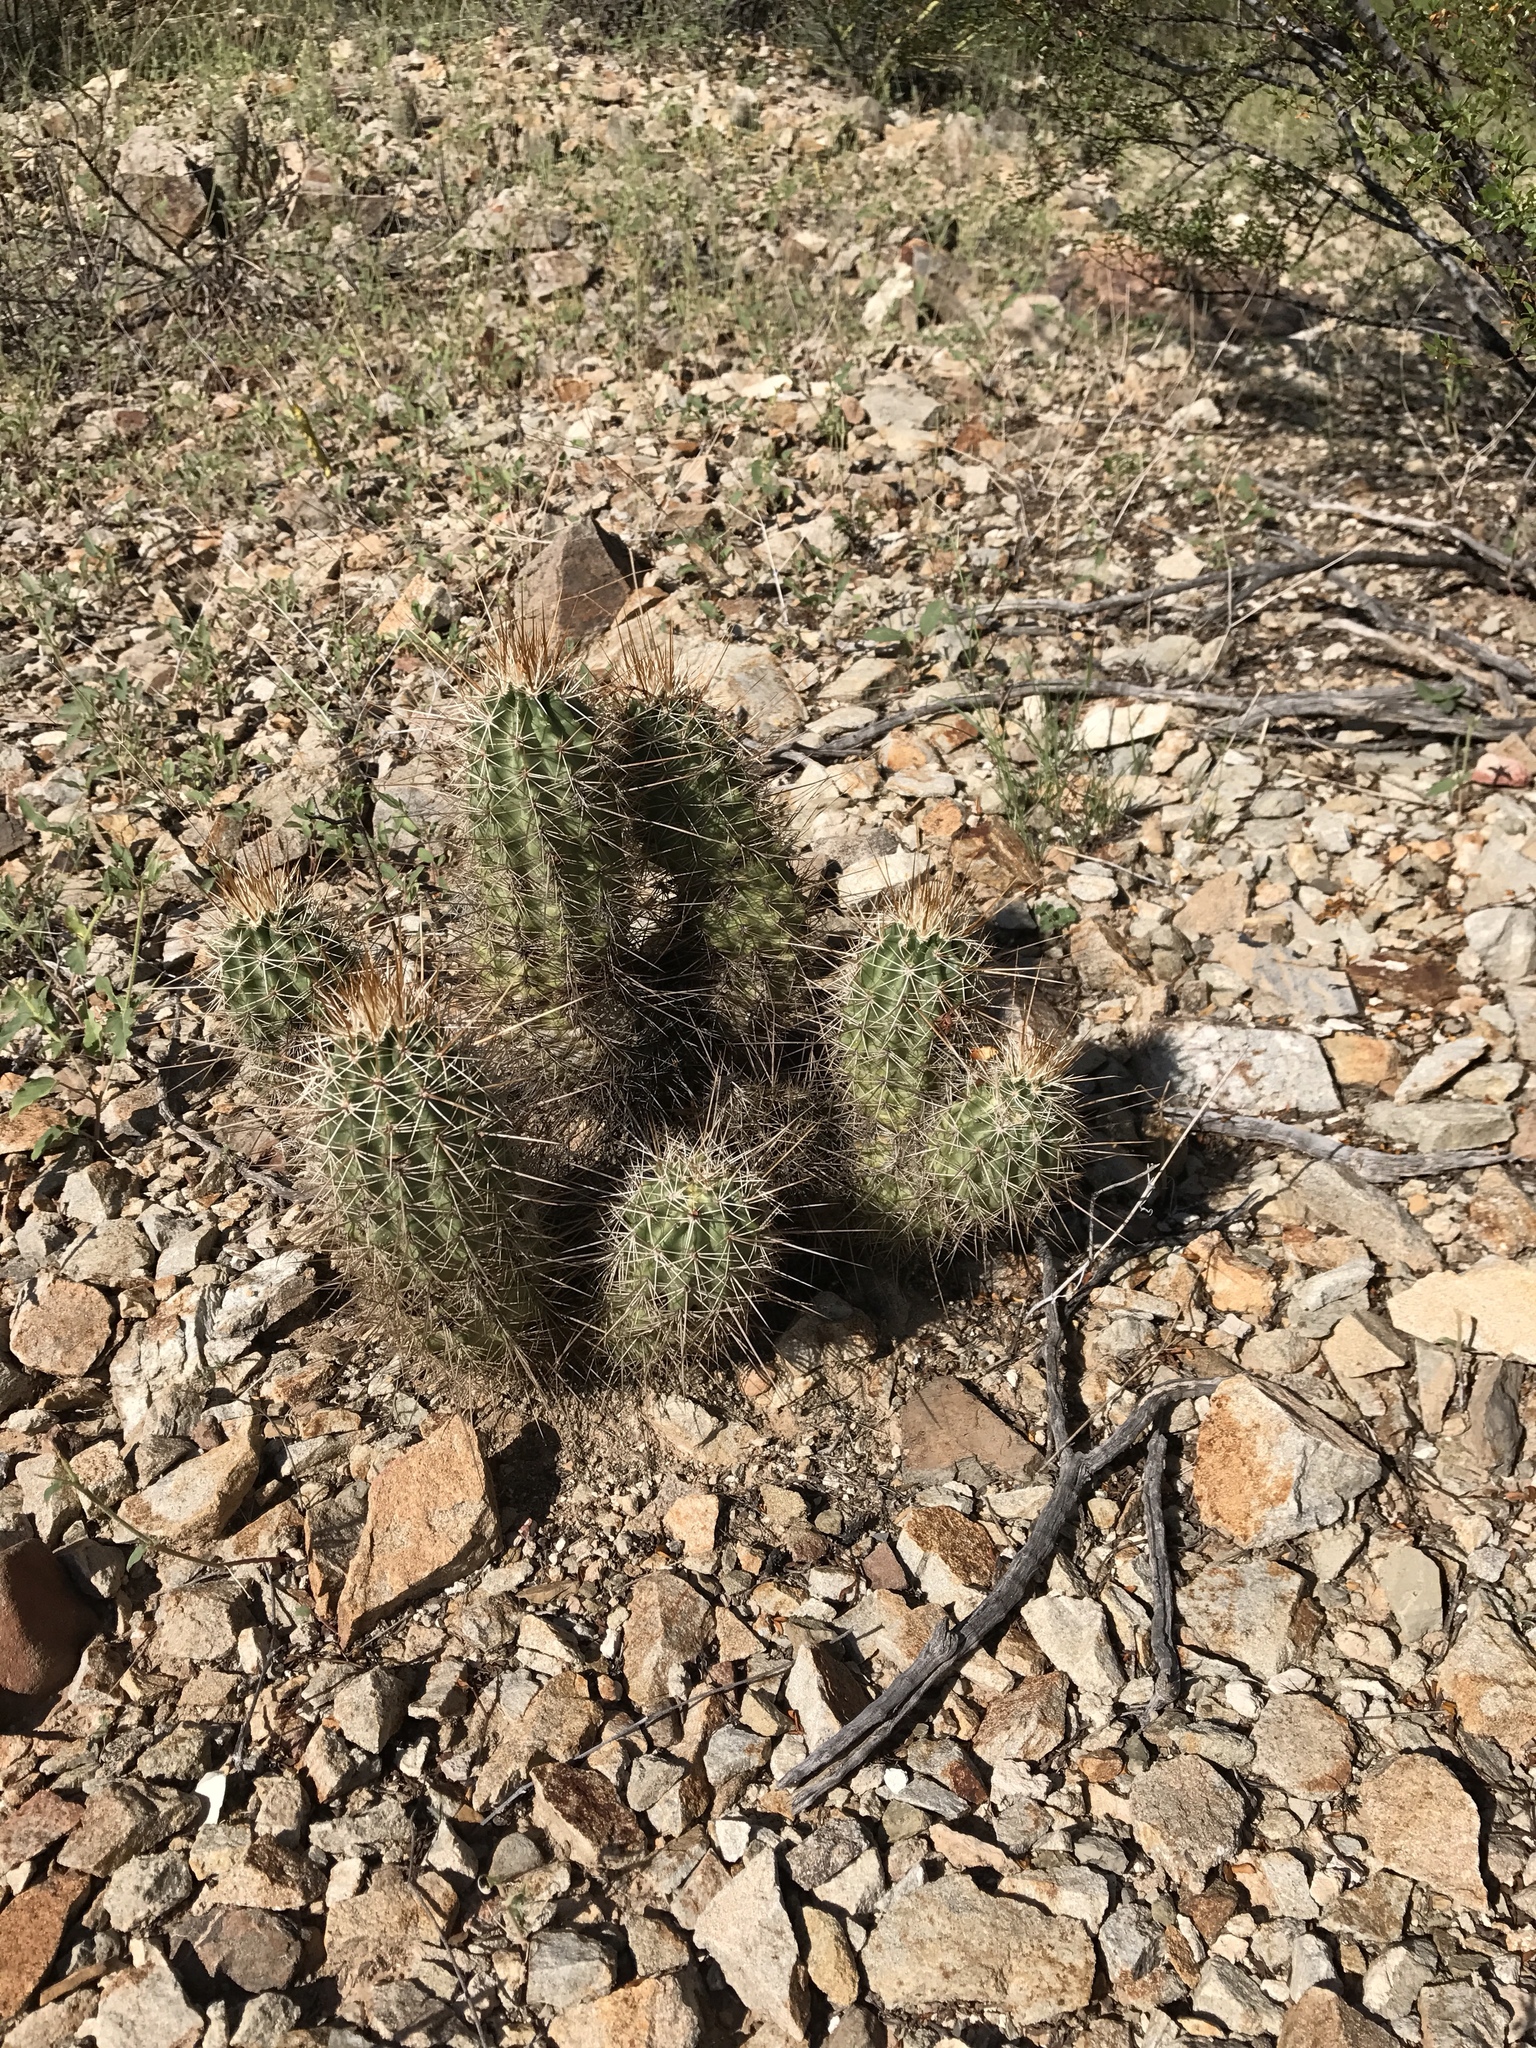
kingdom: Plantae
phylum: Tracheophyta
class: Magnoliopsida
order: Caryophyllales
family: Cactaceae
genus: Echinocereus
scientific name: Echinocereus fasciculatus
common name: Bundle hedgehog
